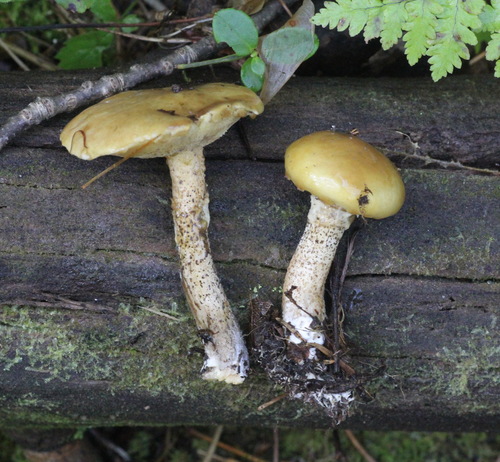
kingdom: Fungi
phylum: Basidiomycota
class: Agaricomycetes
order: Boletales
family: Suillaceae
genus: Suillus
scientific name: Suillus acidus
